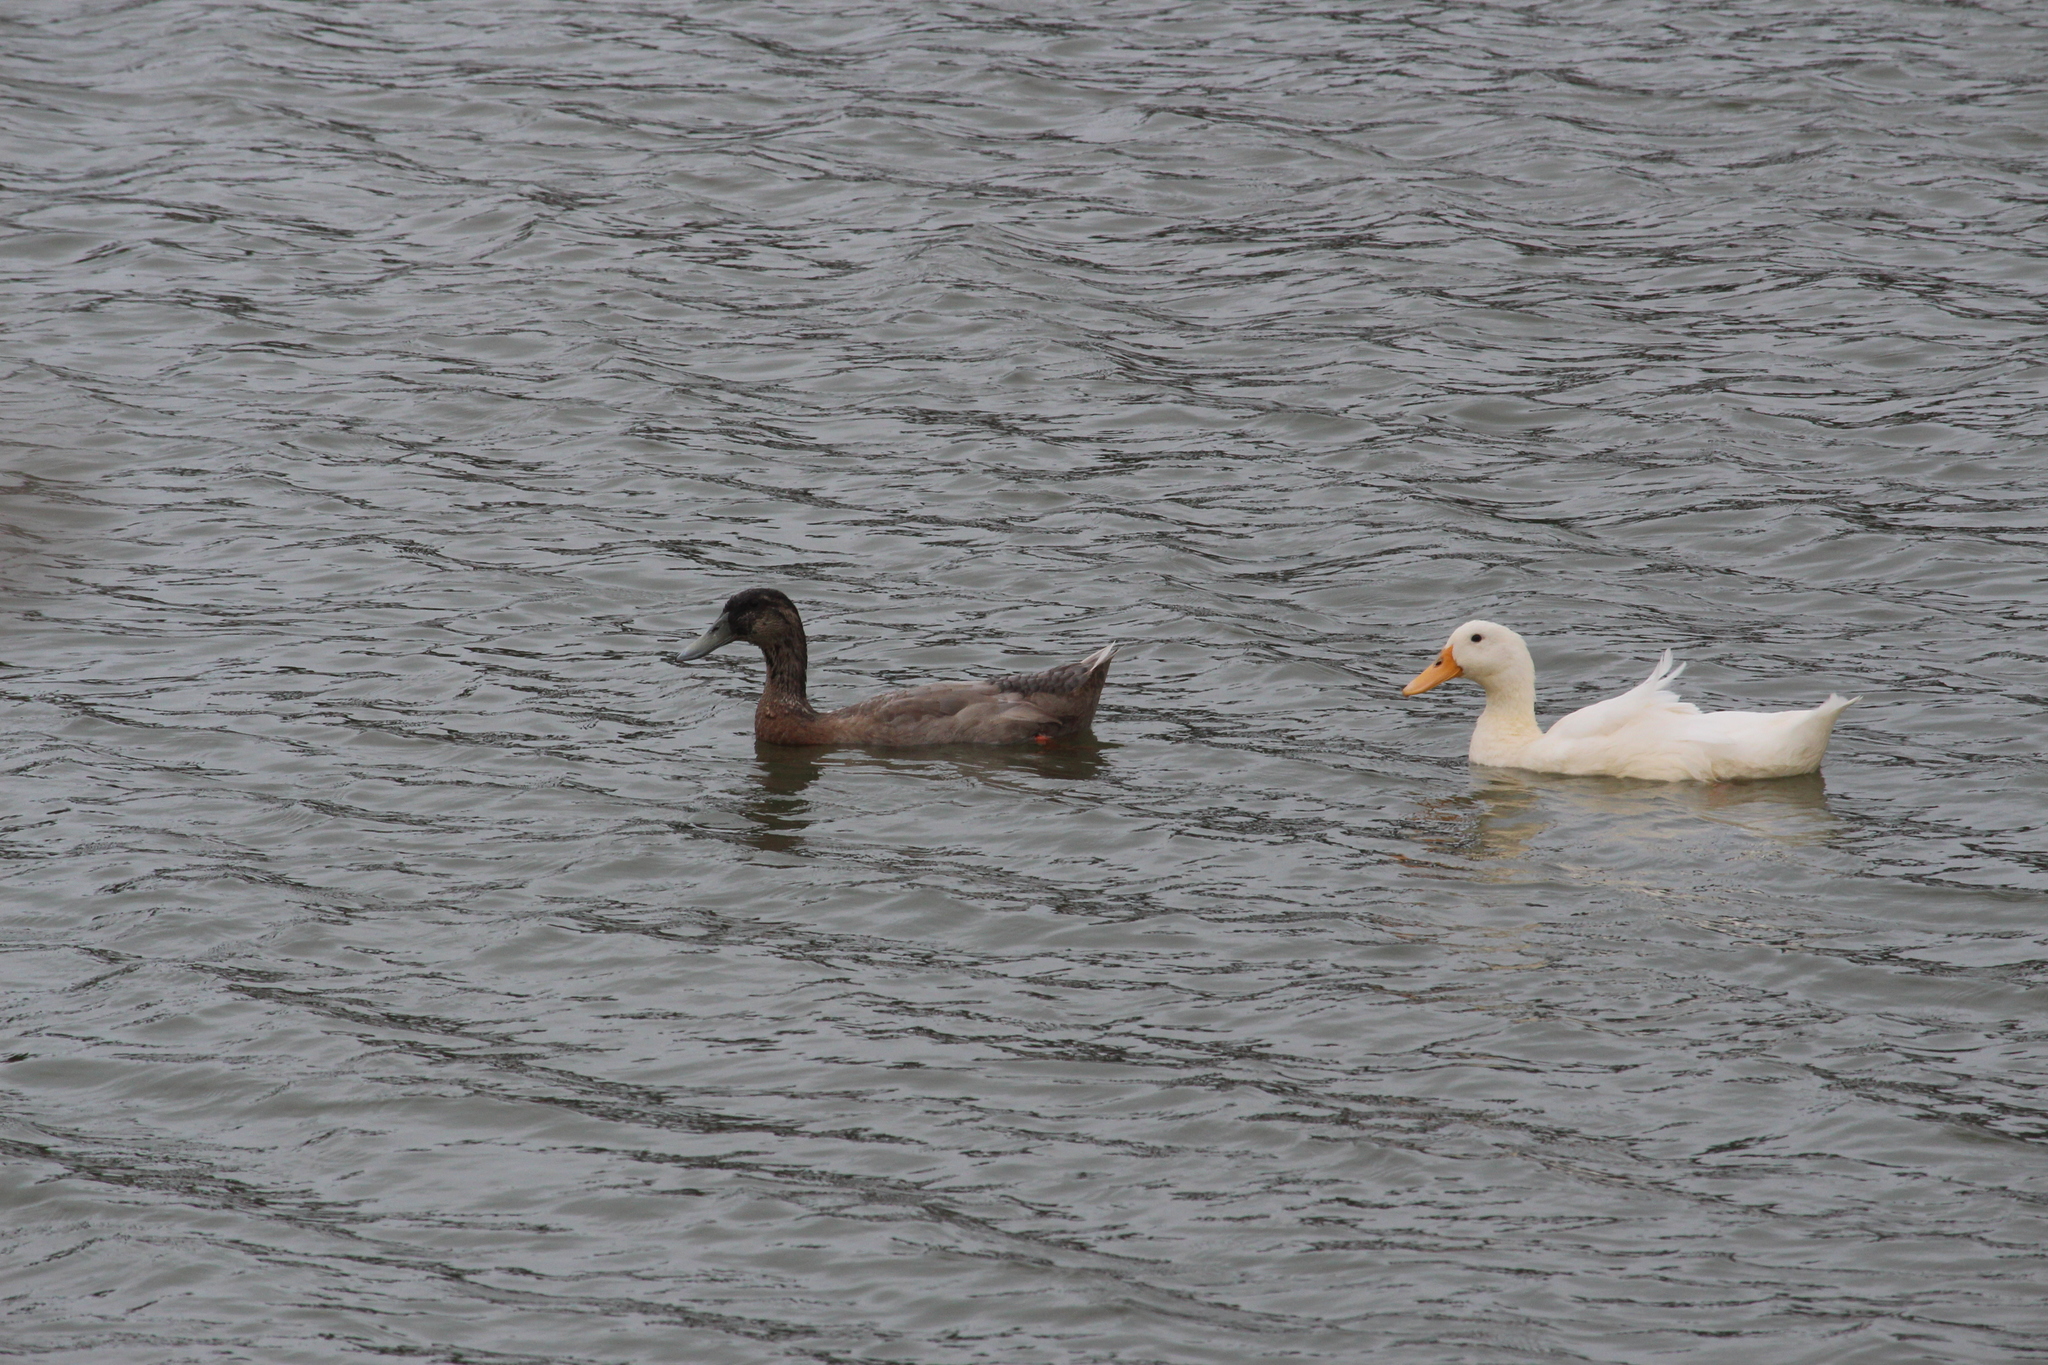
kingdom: Animalia
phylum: Chordata
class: Aves
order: Anseriformes
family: Anatidae
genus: Anas
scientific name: Anas platyrhynchos
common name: Mallard
